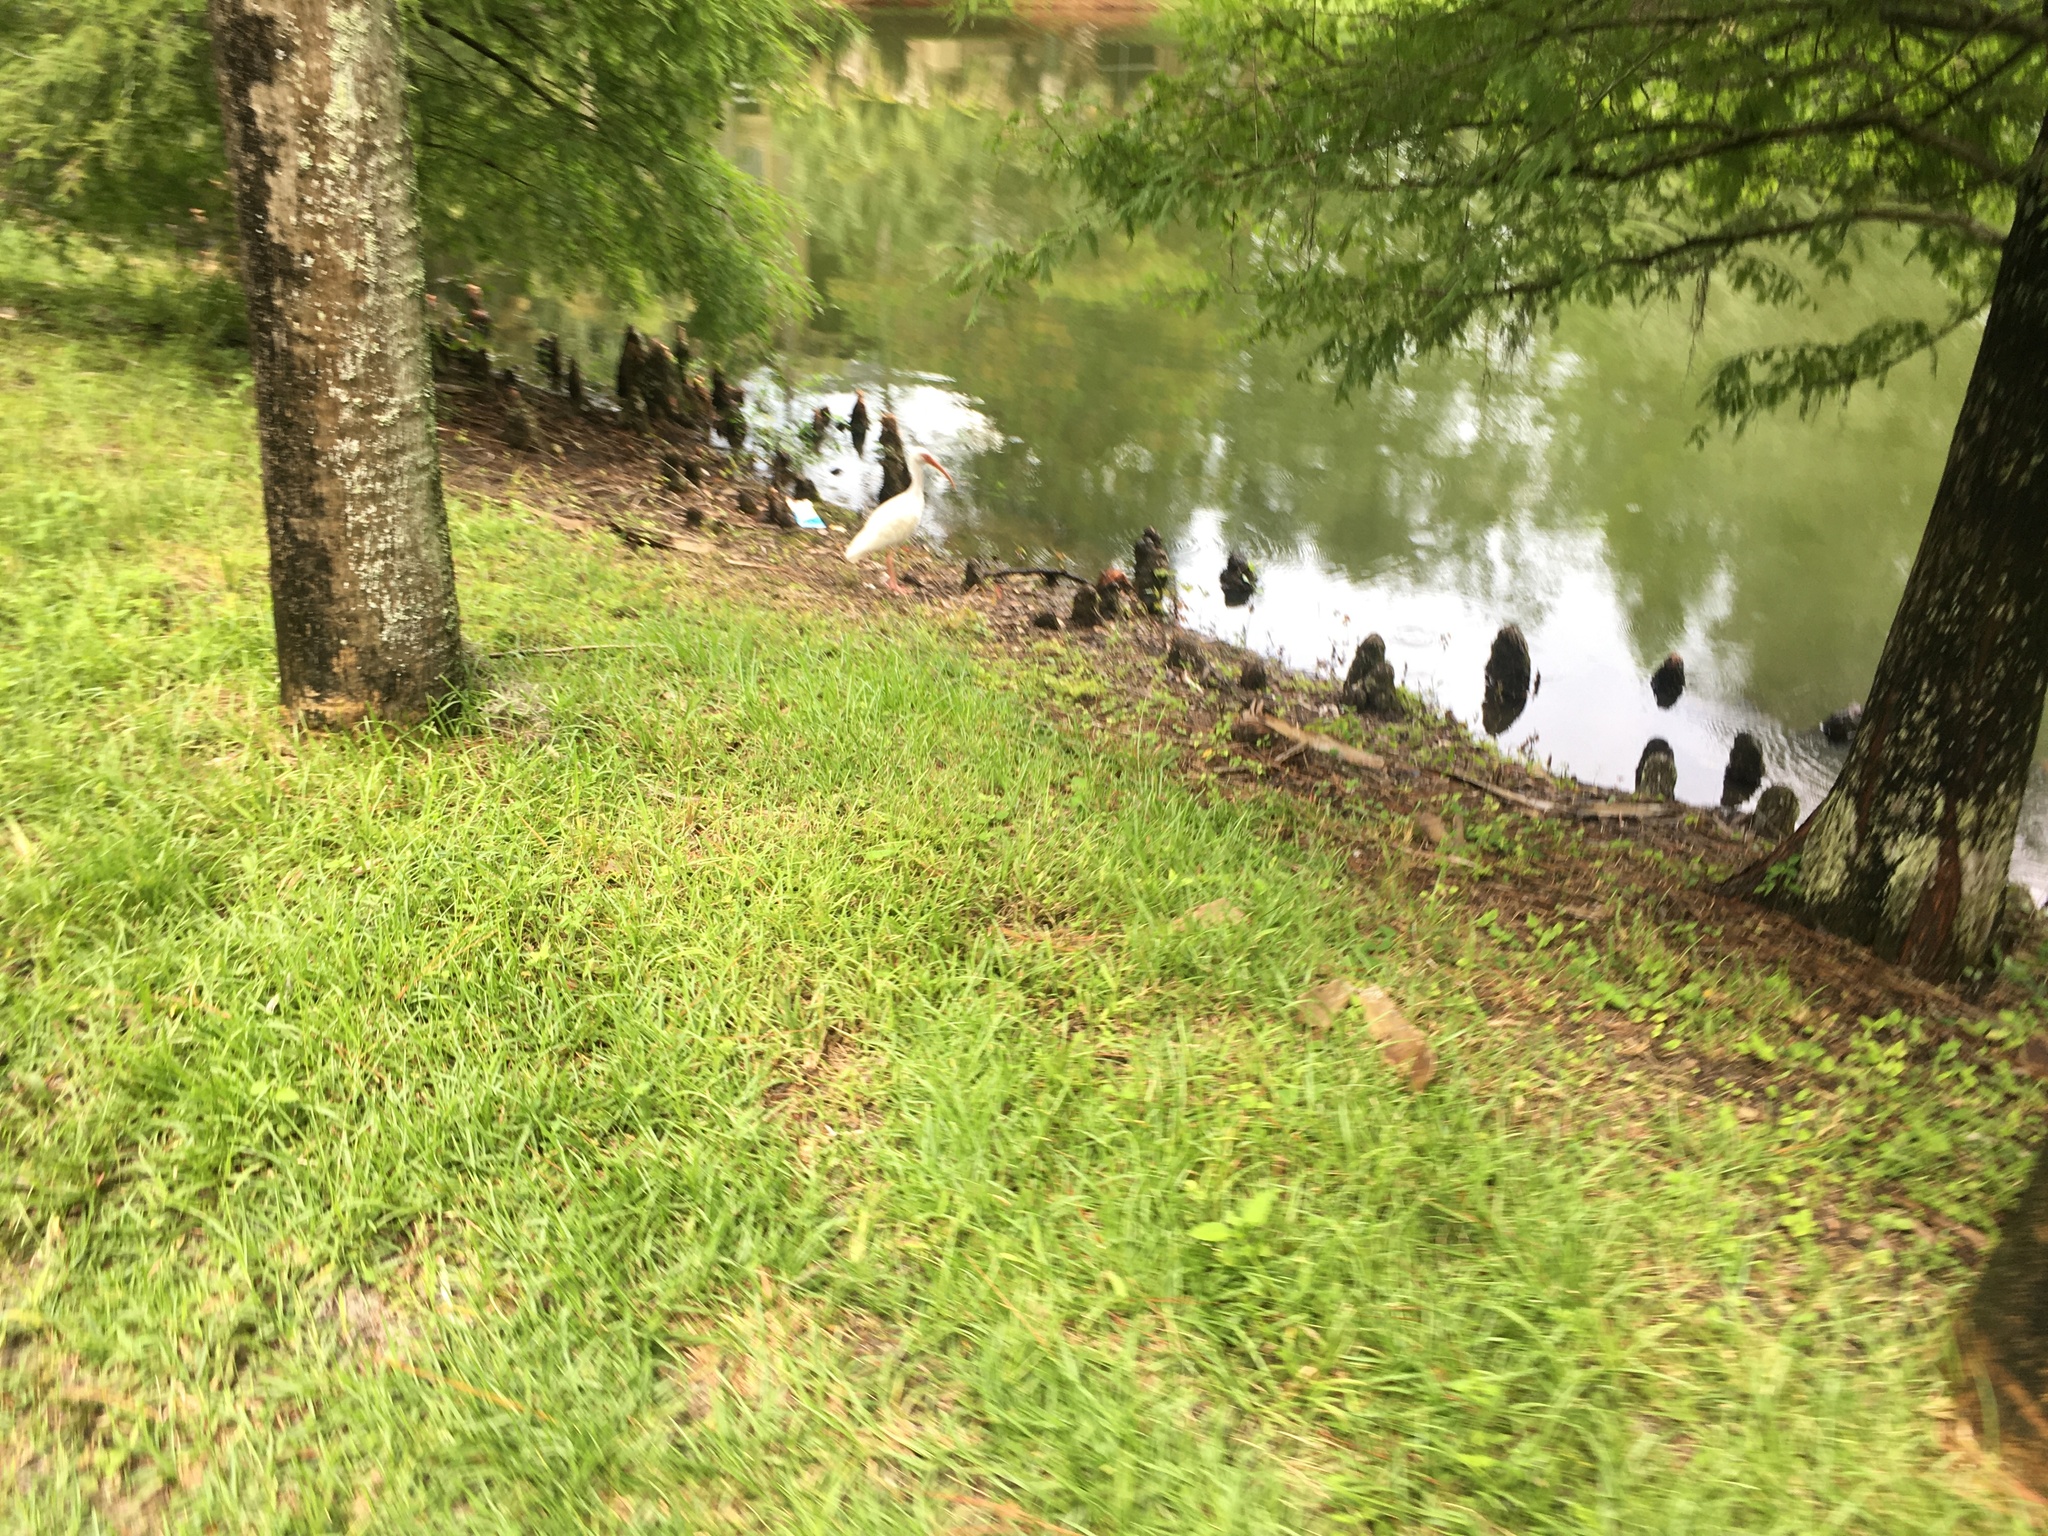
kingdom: Animalia
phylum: Chordata
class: Aves
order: Pelecaniformes
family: Threskiornithidae
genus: Eudocimus
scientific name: Eudocimus albus
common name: White ibis
